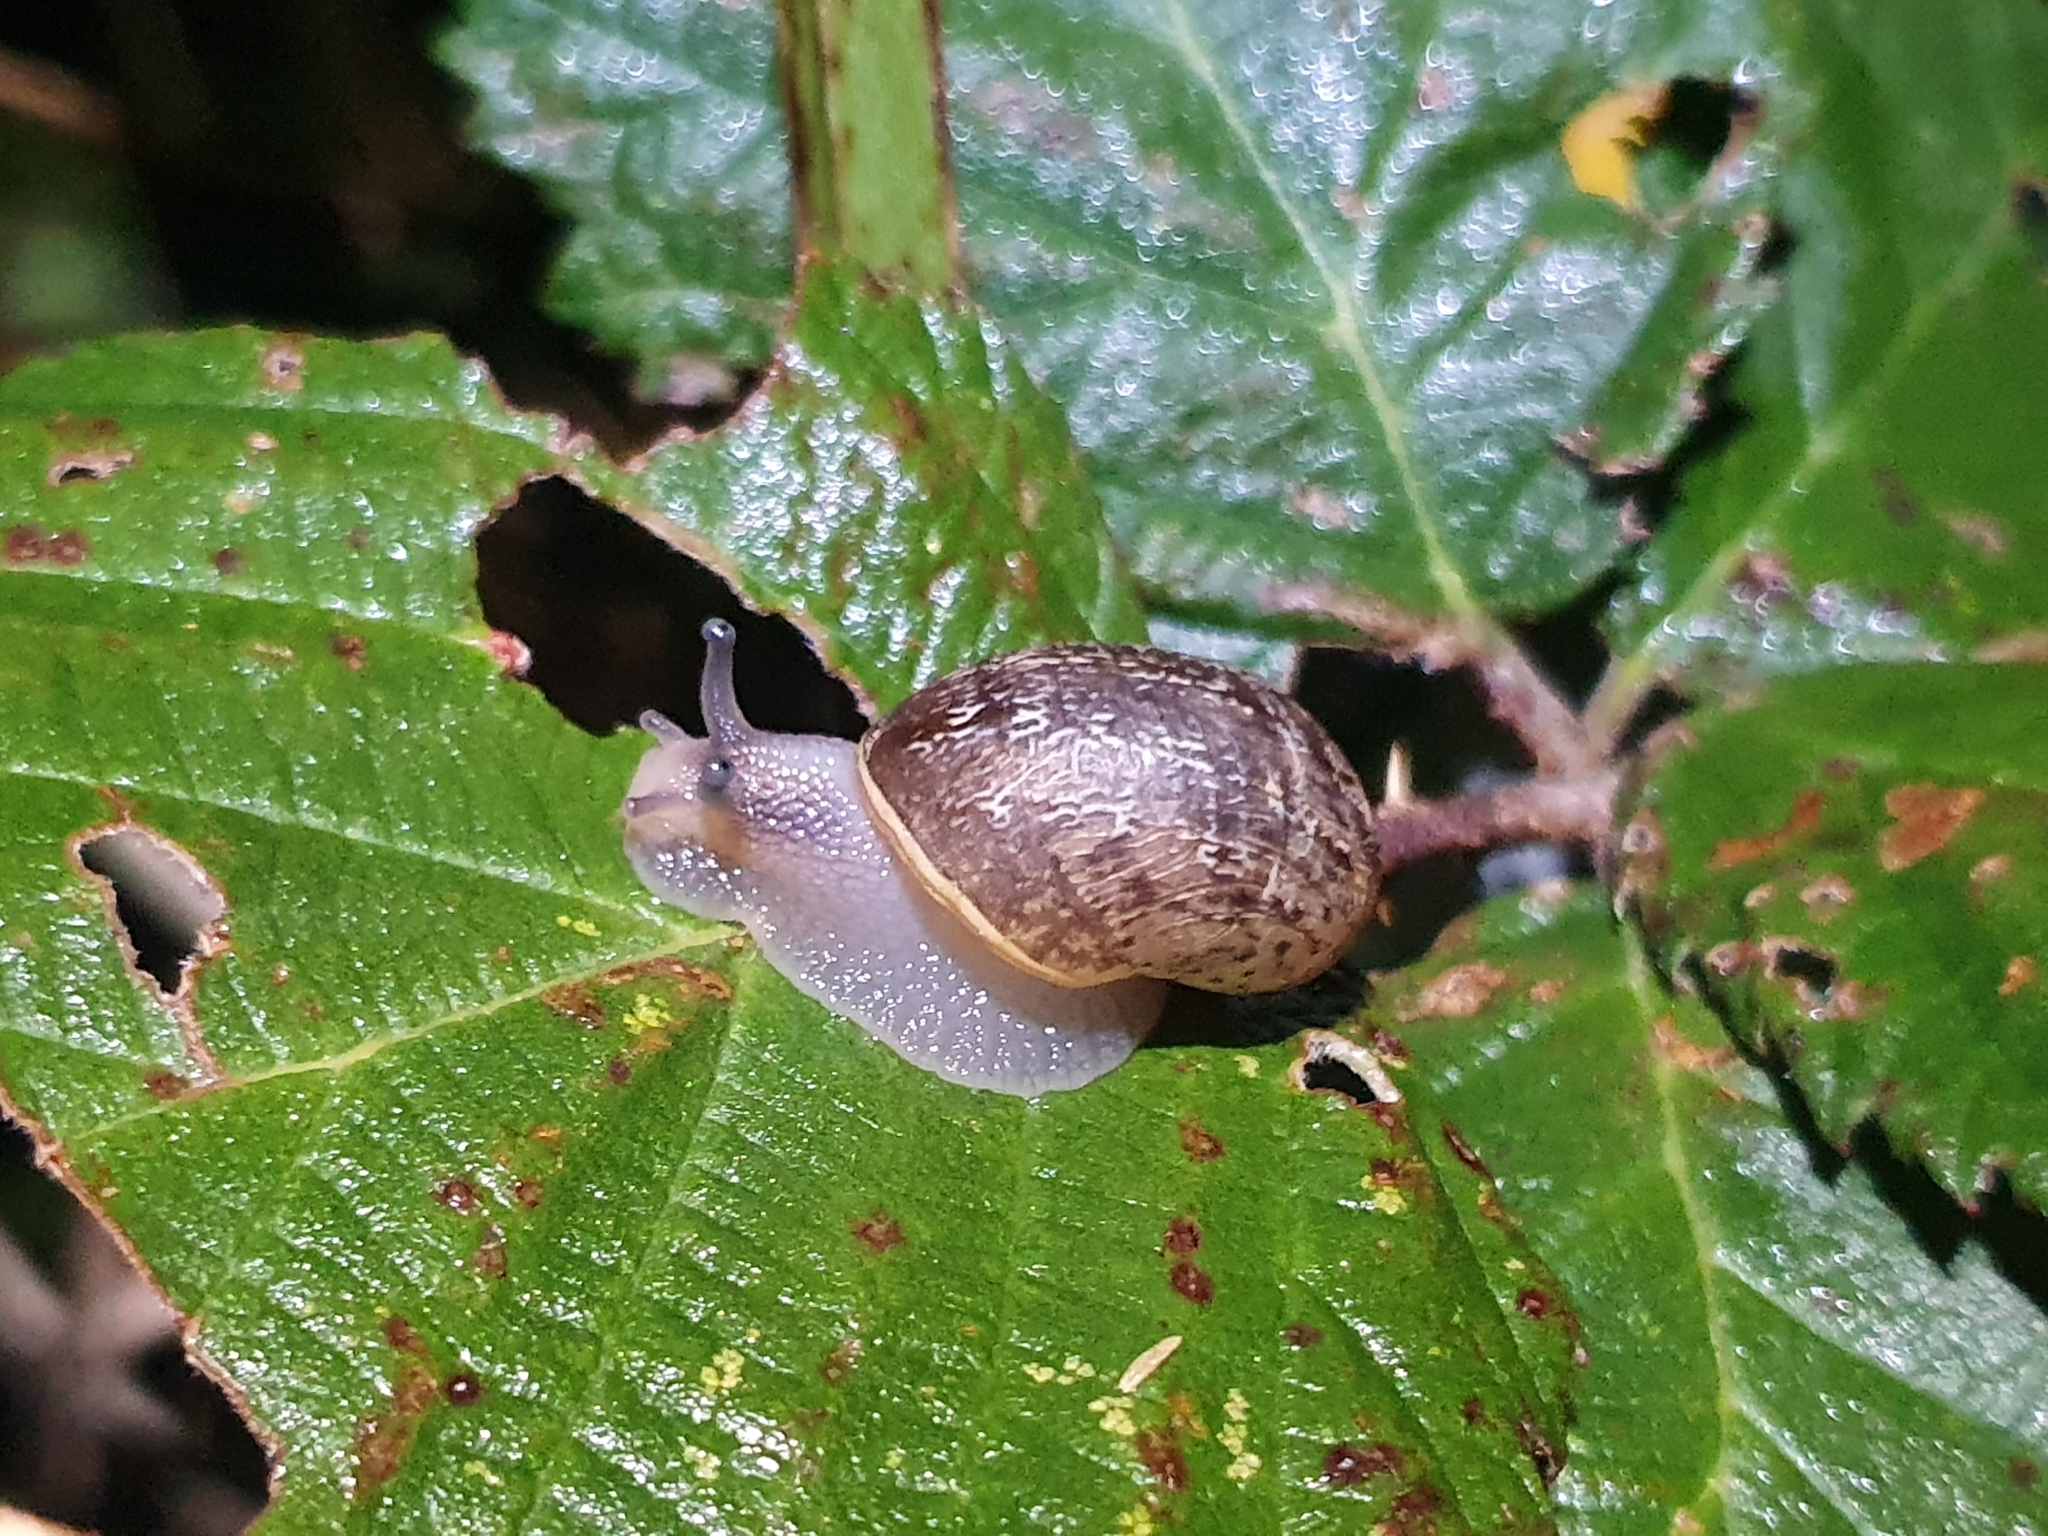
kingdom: Animalia
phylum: Mollusca
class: Gastropoda
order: Stylommatophora
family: Helicidae
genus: Cornu
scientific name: Cornu aspersum
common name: Brown garden snail
